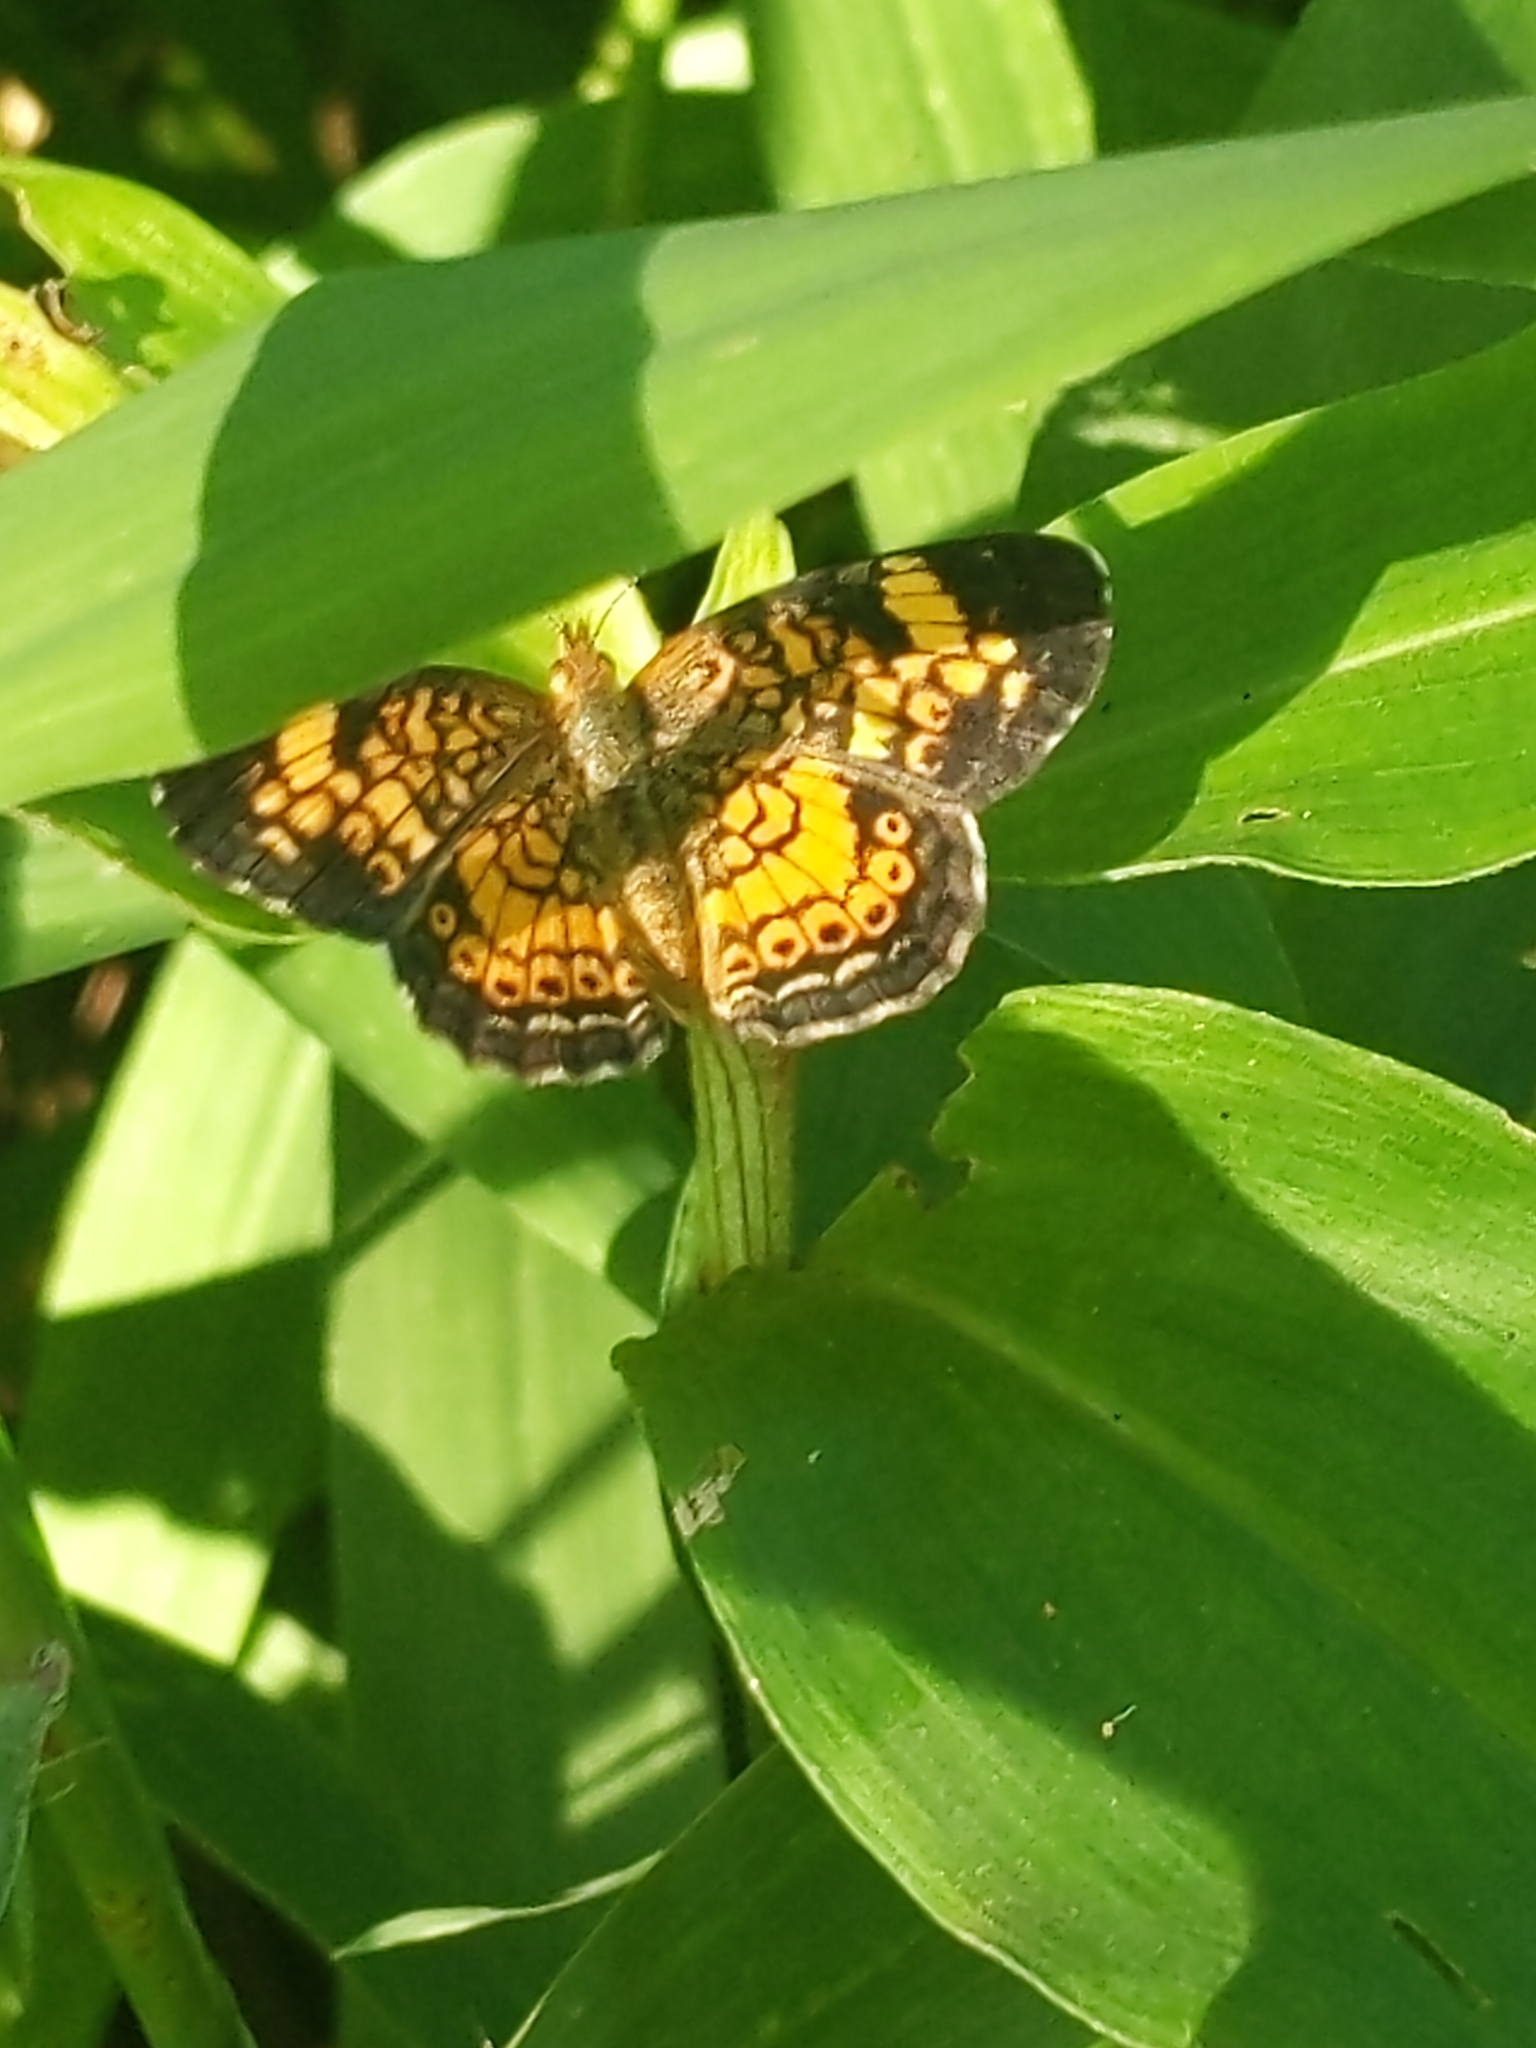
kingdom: Animalia
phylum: Arthropoda
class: Insecta
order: Lepidoptera
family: Nymphalidae
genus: Phyciodes
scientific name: Phyciodes tharos
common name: Pearl crescent
